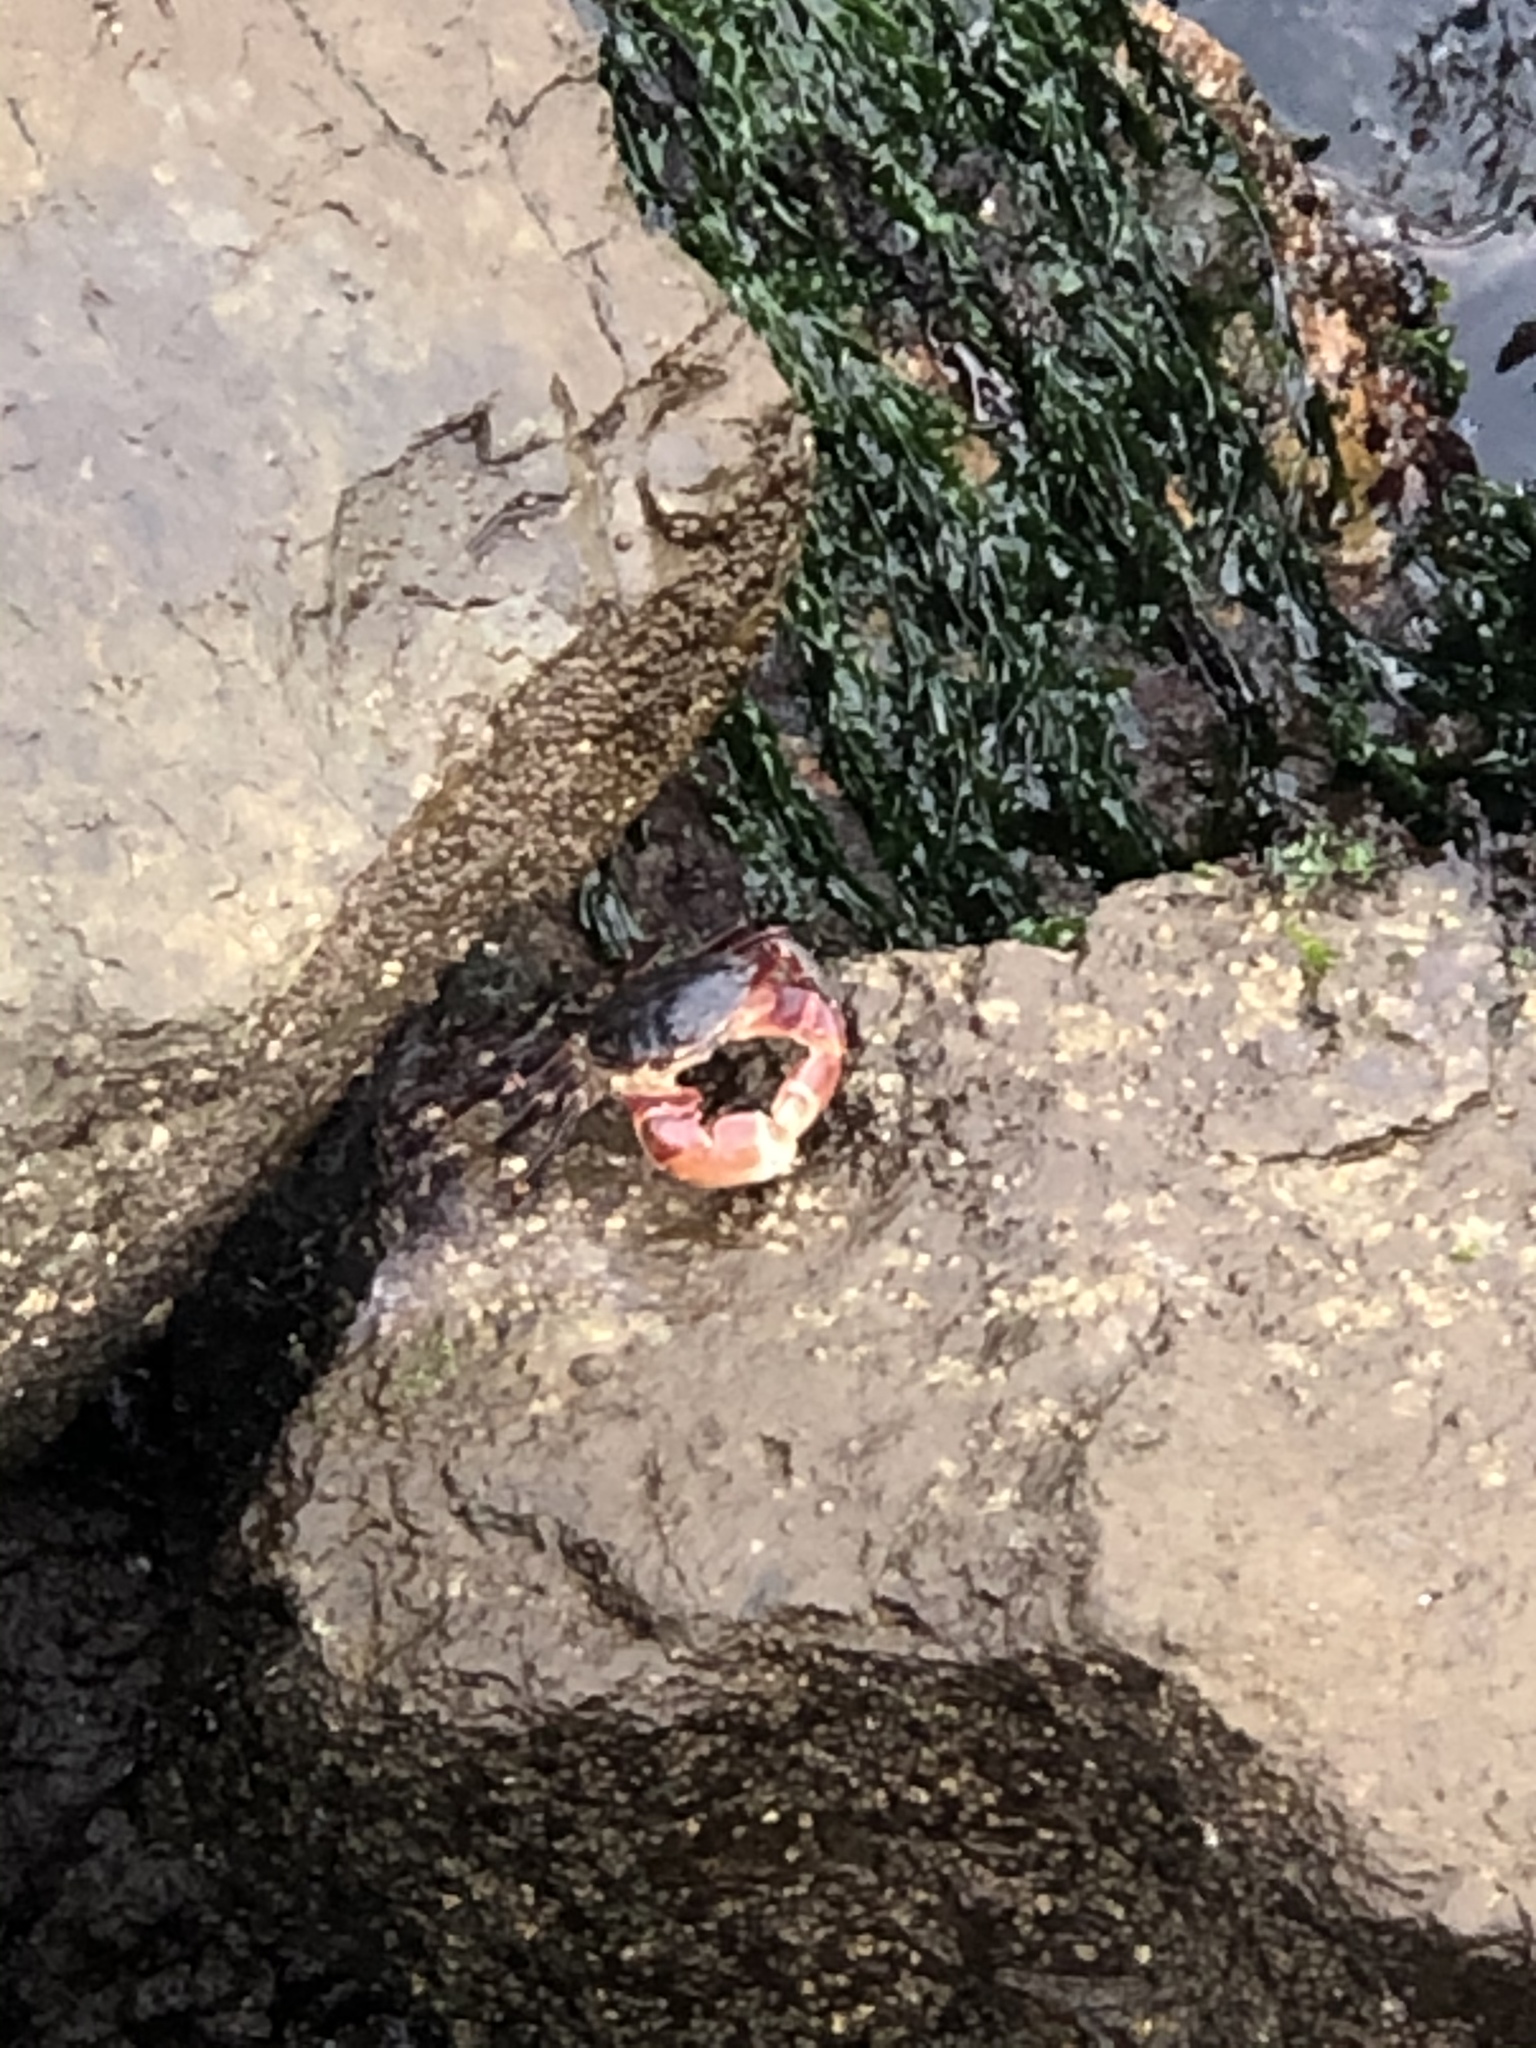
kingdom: Animalia
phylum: Arthropoda
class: Malacostraca
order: Decapoda
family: Grapsidae
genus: Pachygrapsus
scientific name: Pachygrapsus crassipes
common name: Striped shore crab
